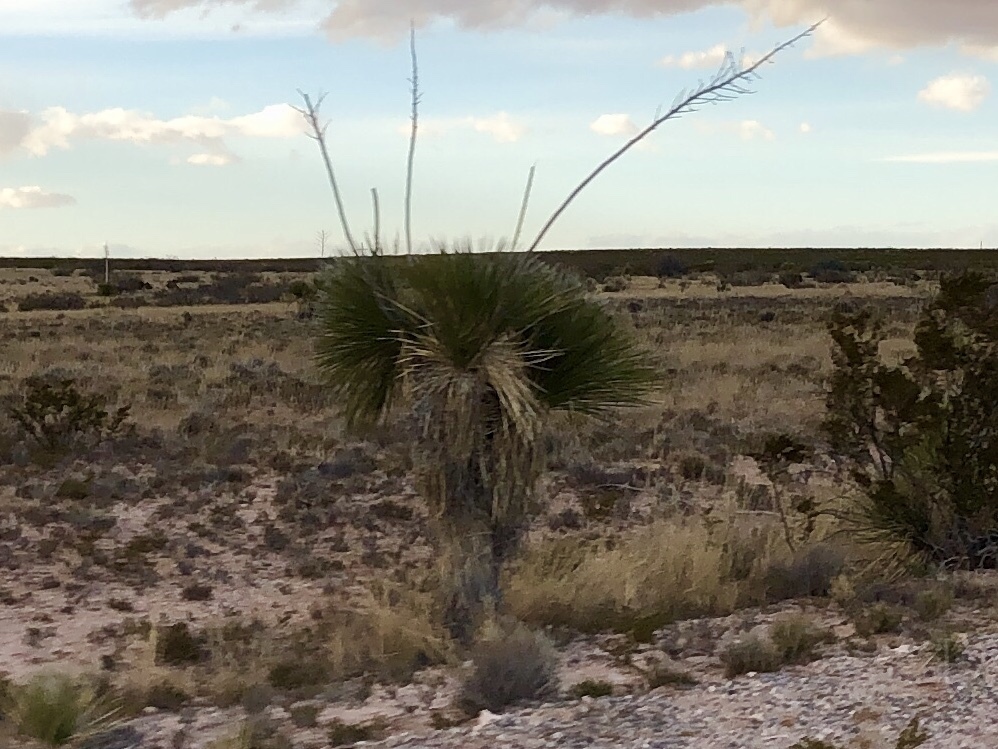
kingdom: Plantae
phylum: Tracheophyta
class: Liliopsida
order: Asparagales
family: Asparagaceae
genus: Yucca
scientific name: Yucca elata
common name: Palmella
